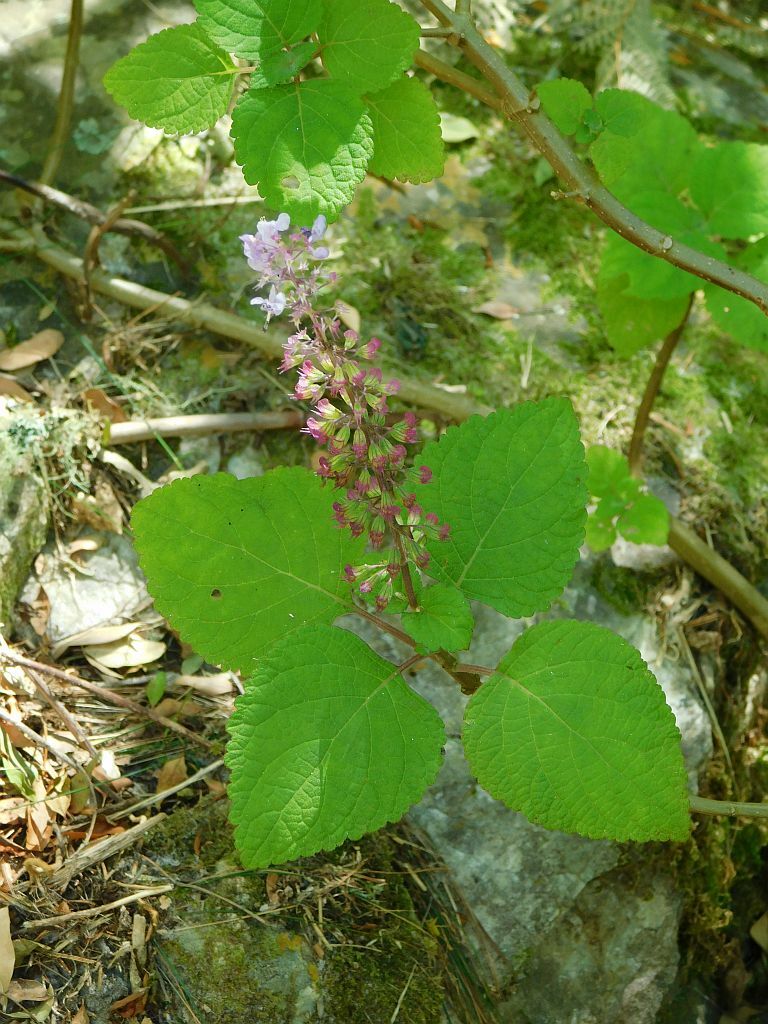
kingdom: Plantae
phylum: Tracheophyta
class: Magnoliopsida
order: Lamiales
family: Lamiaceae
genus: Plectranthus
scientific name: Plectranthus fruticosus
